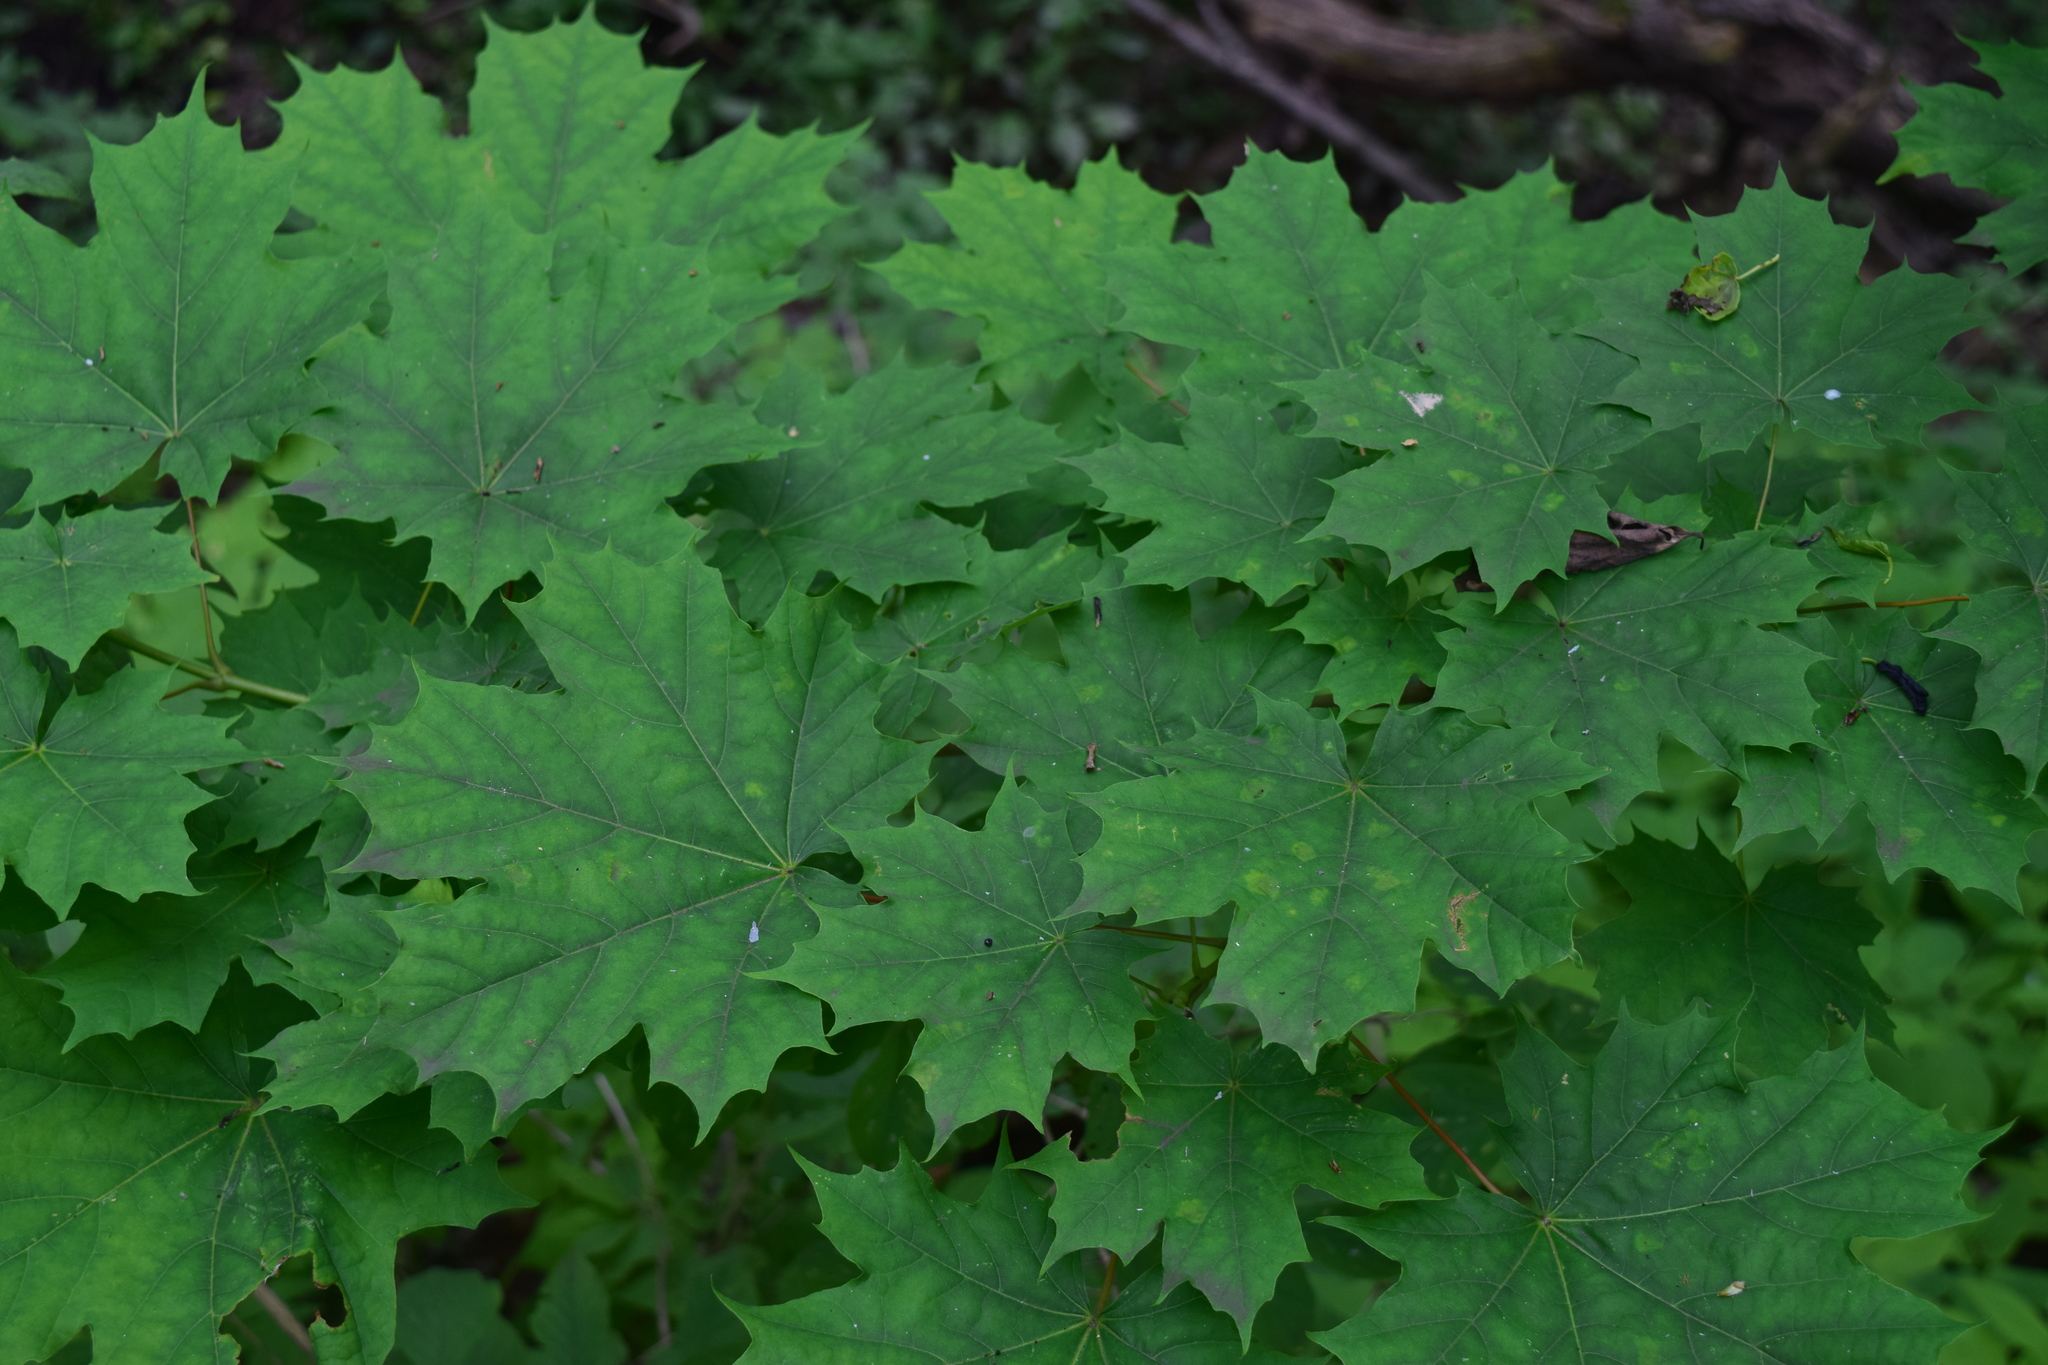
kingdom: Plantae
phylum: Tracheophyta
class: Magnoliopsida
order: Sapindales
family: Sapindaceae
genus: Acer
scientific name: Acer platanoides
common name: Norway maple
